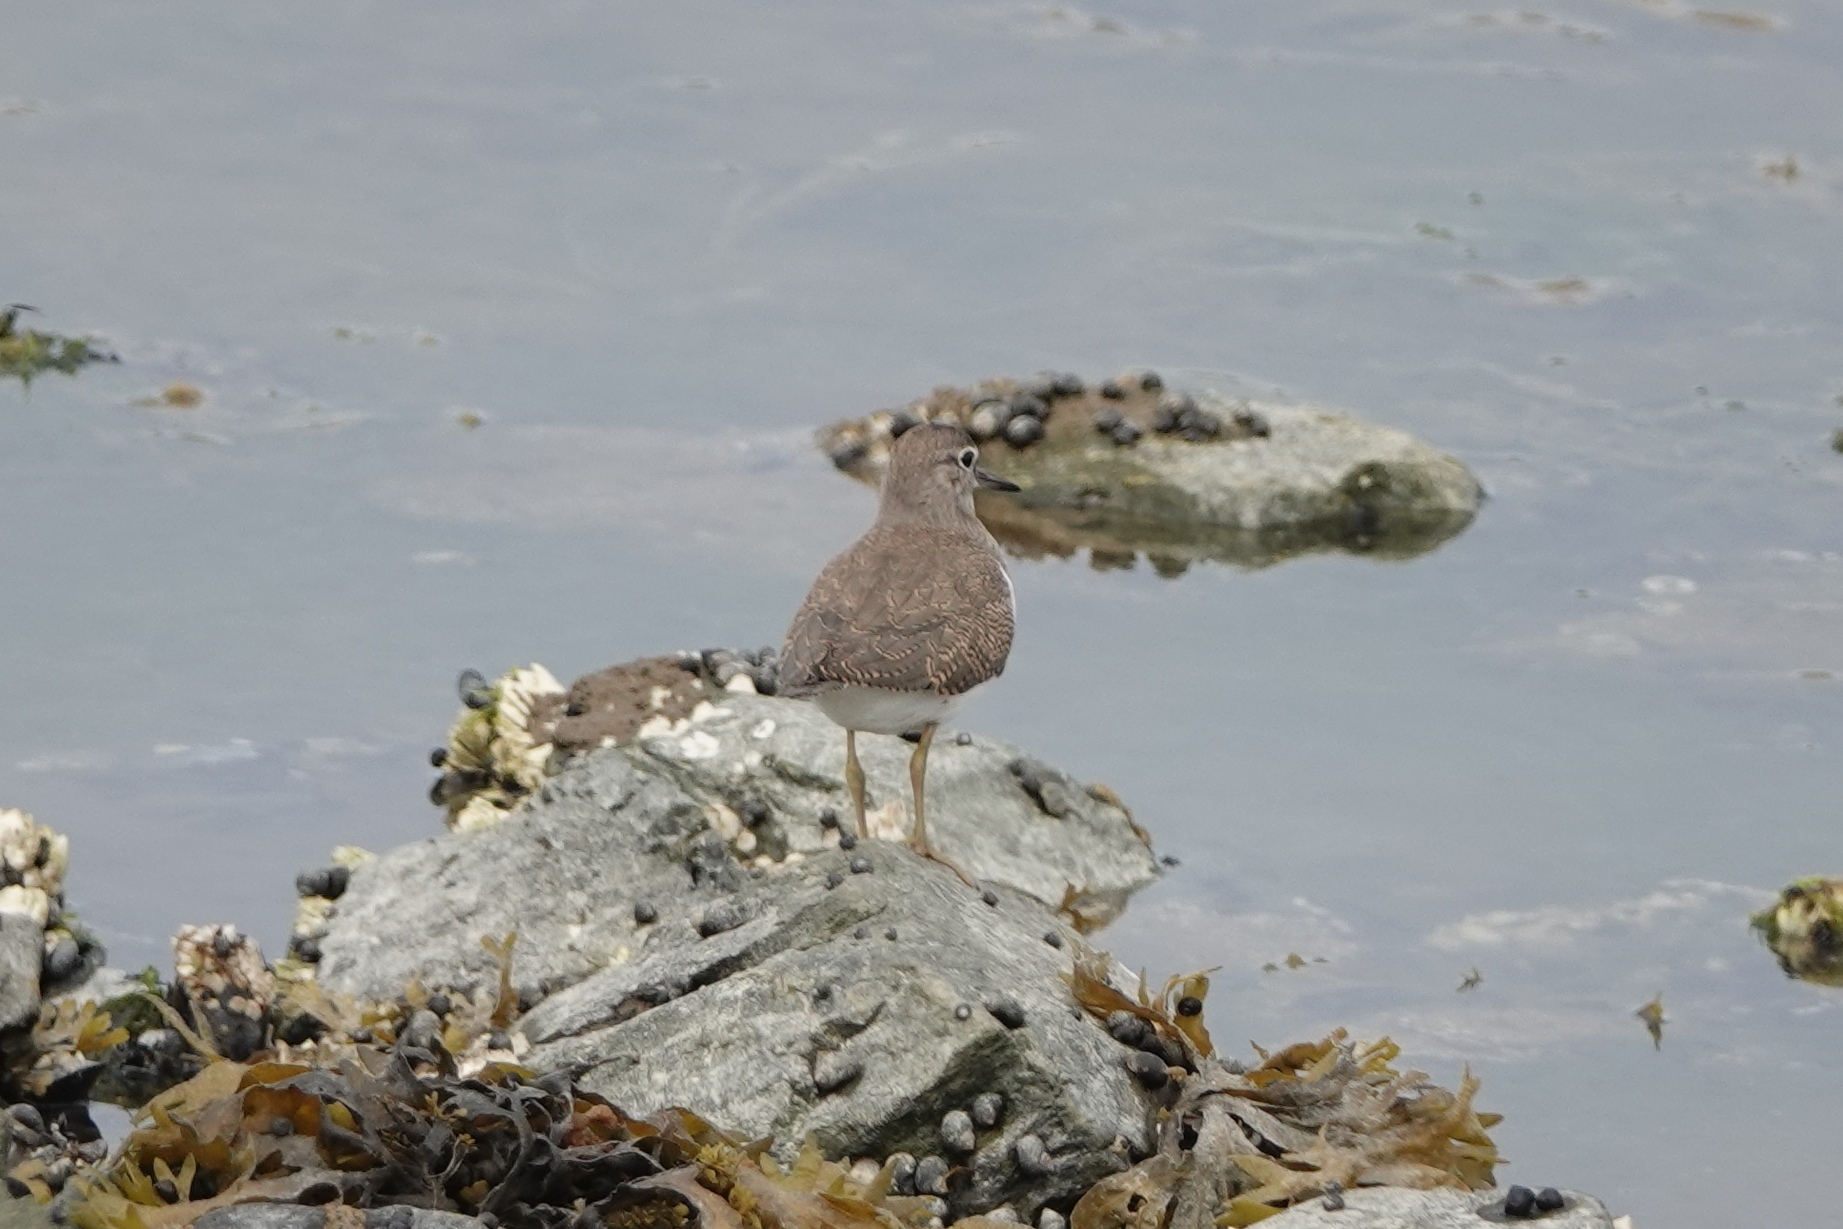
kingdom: Animalia
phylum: Chordata
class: Aves
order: Charadriiformes
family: Scolopacidae
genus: Actitis
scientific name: Actitis hypoleucos
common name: Common sandpiper
